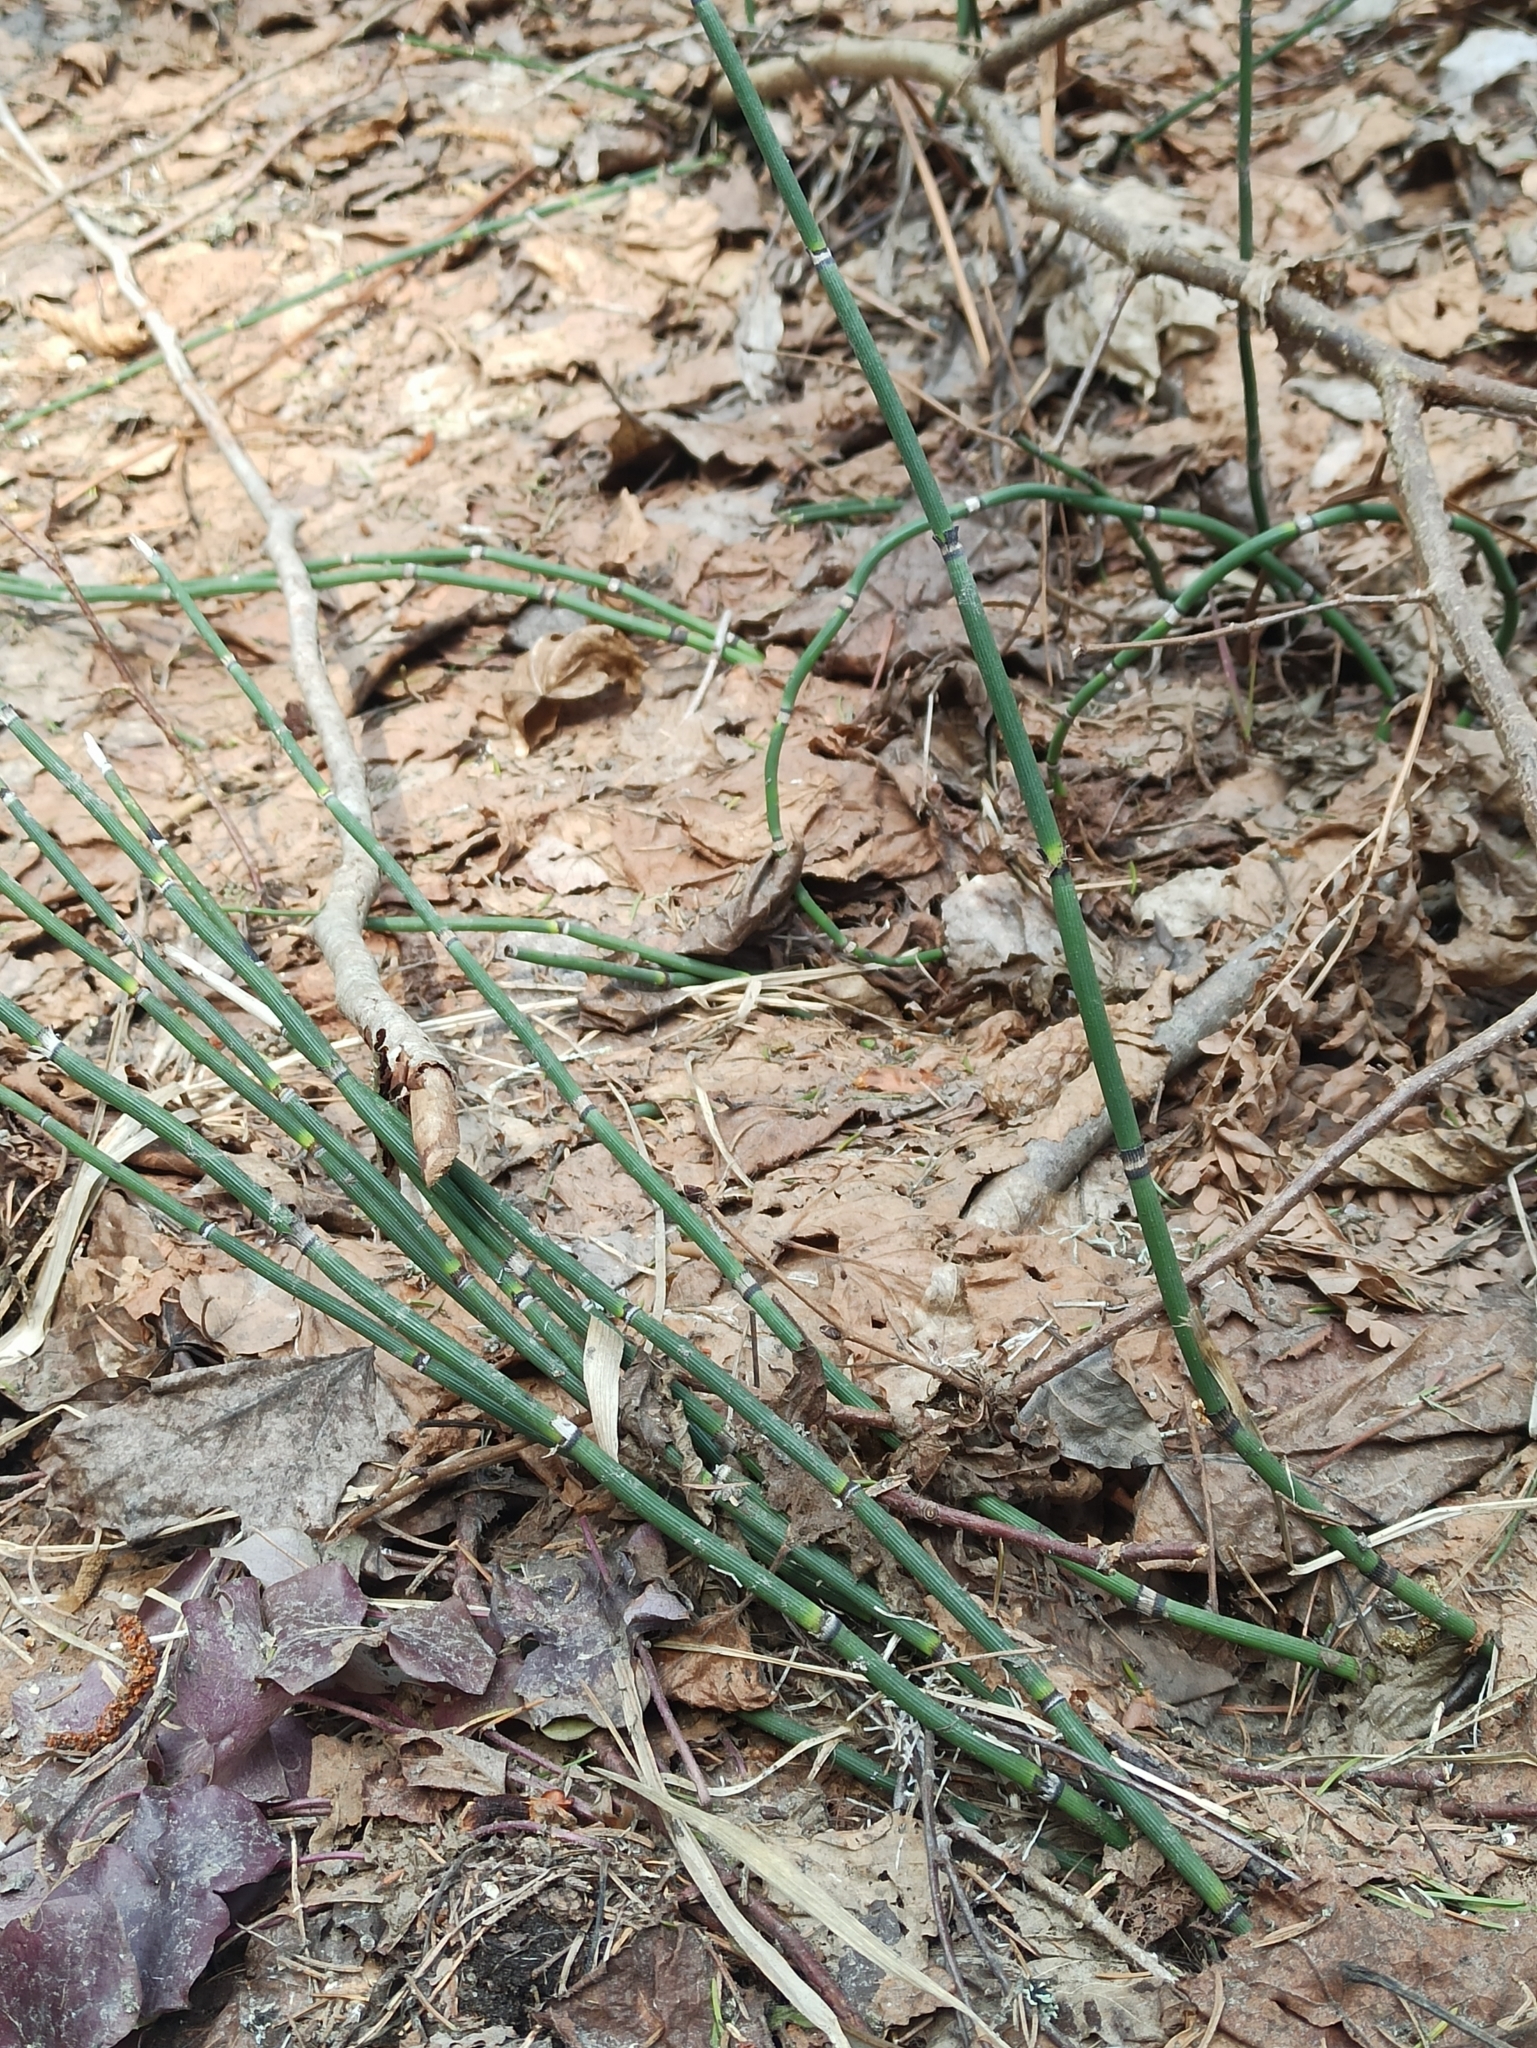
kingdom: Plantae
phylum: Tracheophyta
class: Polypodiopsida
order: Equisetales
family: Equisetaceae
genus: Equisetum
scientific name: Equisetum hyemale
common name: Rough horsetail
